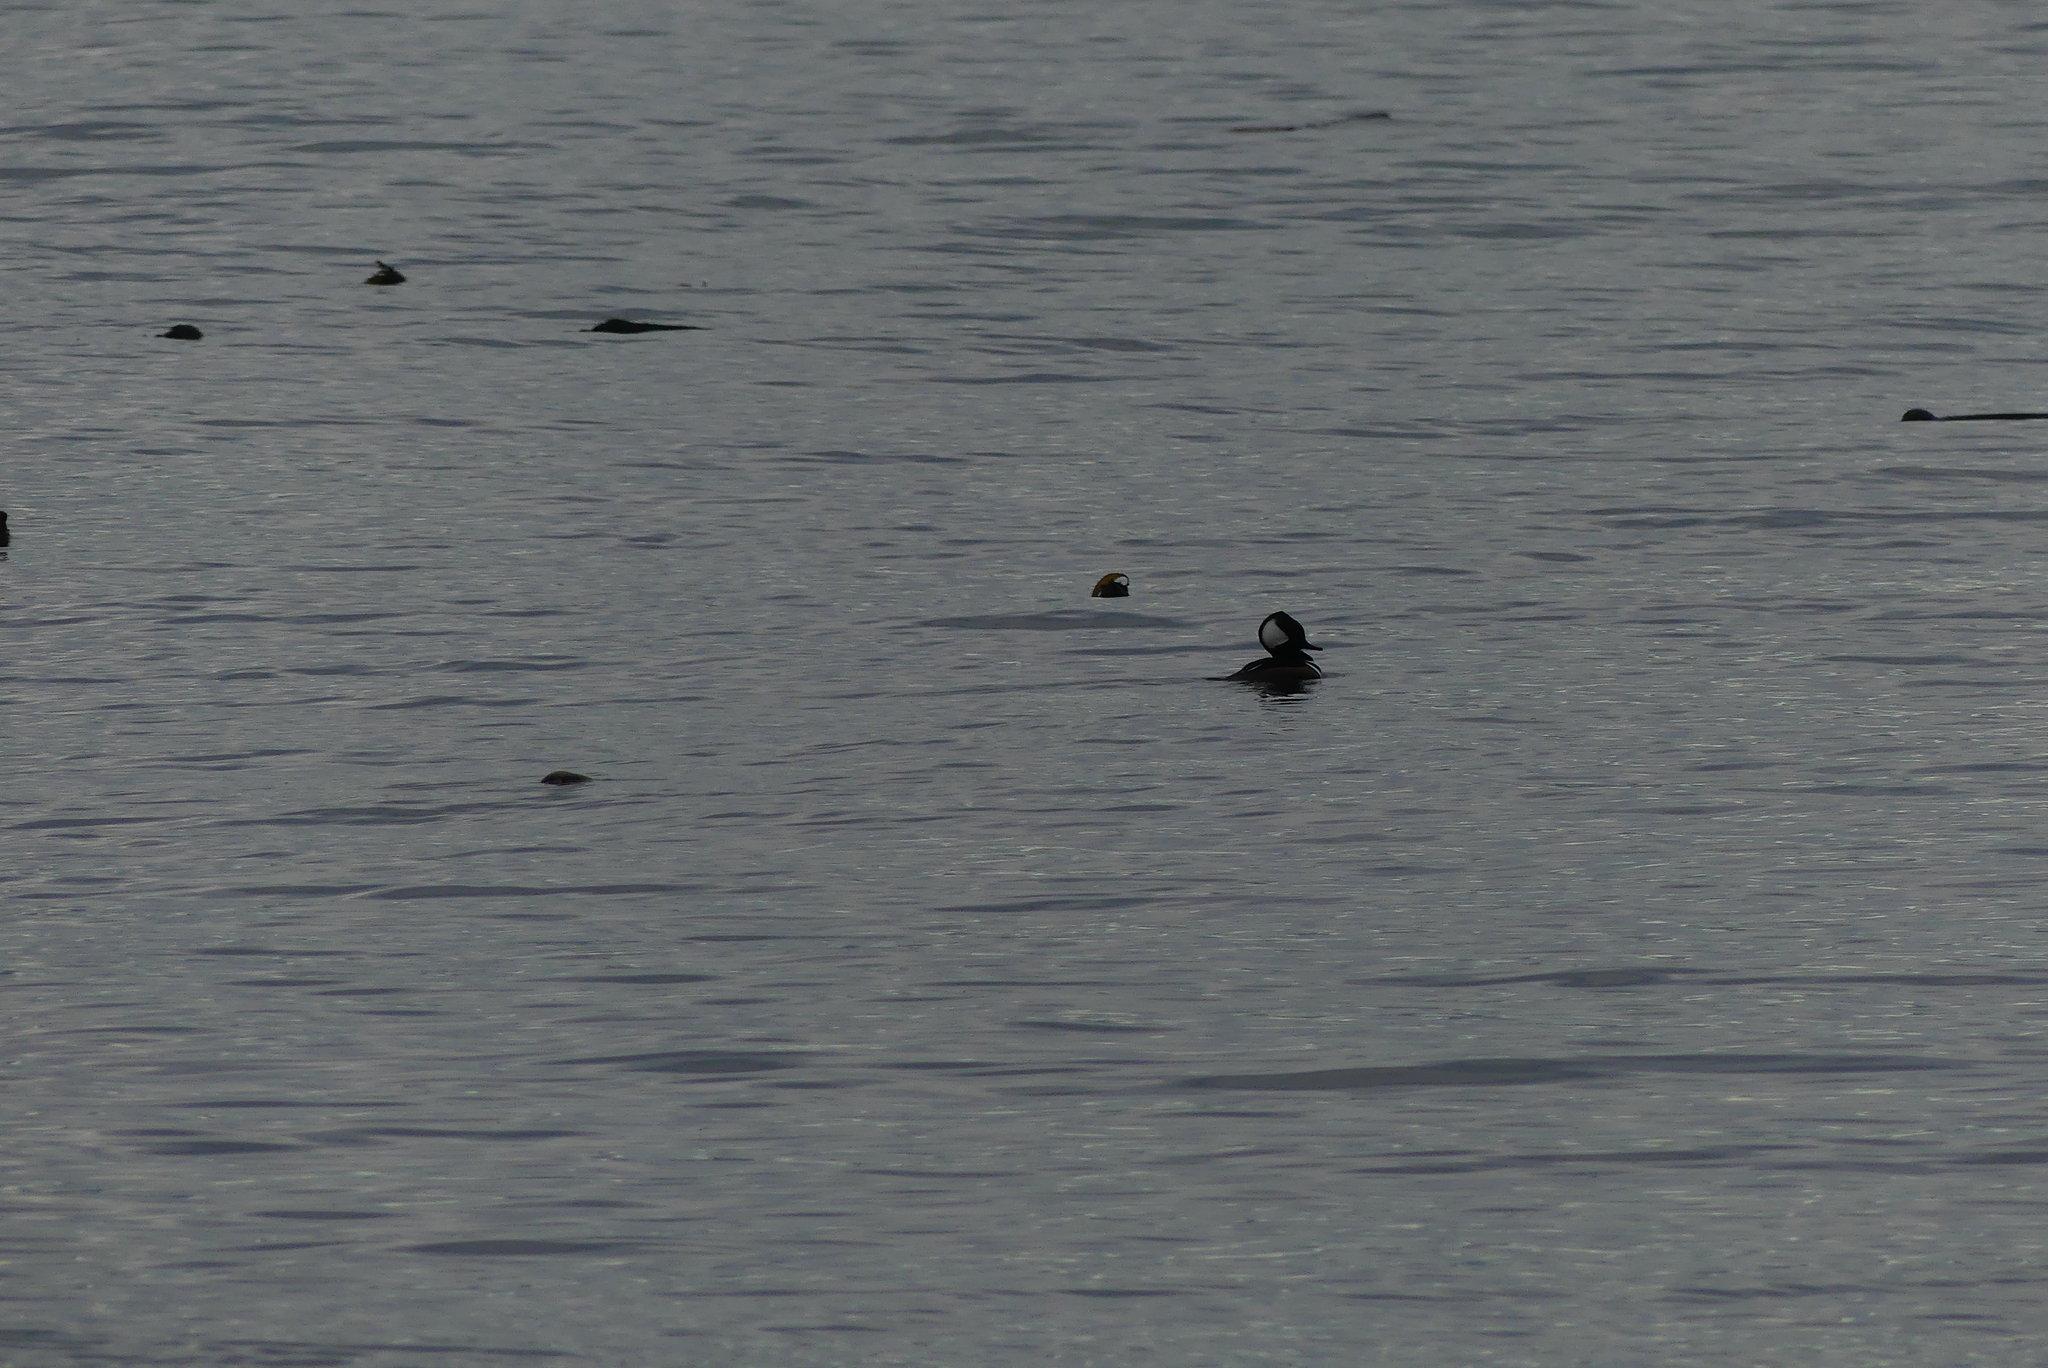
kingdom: Animalia
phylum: Chordata
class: Aves
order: Anseriformes
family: Anatidae
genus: Lophodytes
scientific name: Lophodytes cucullatus
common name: Hooded merganser
